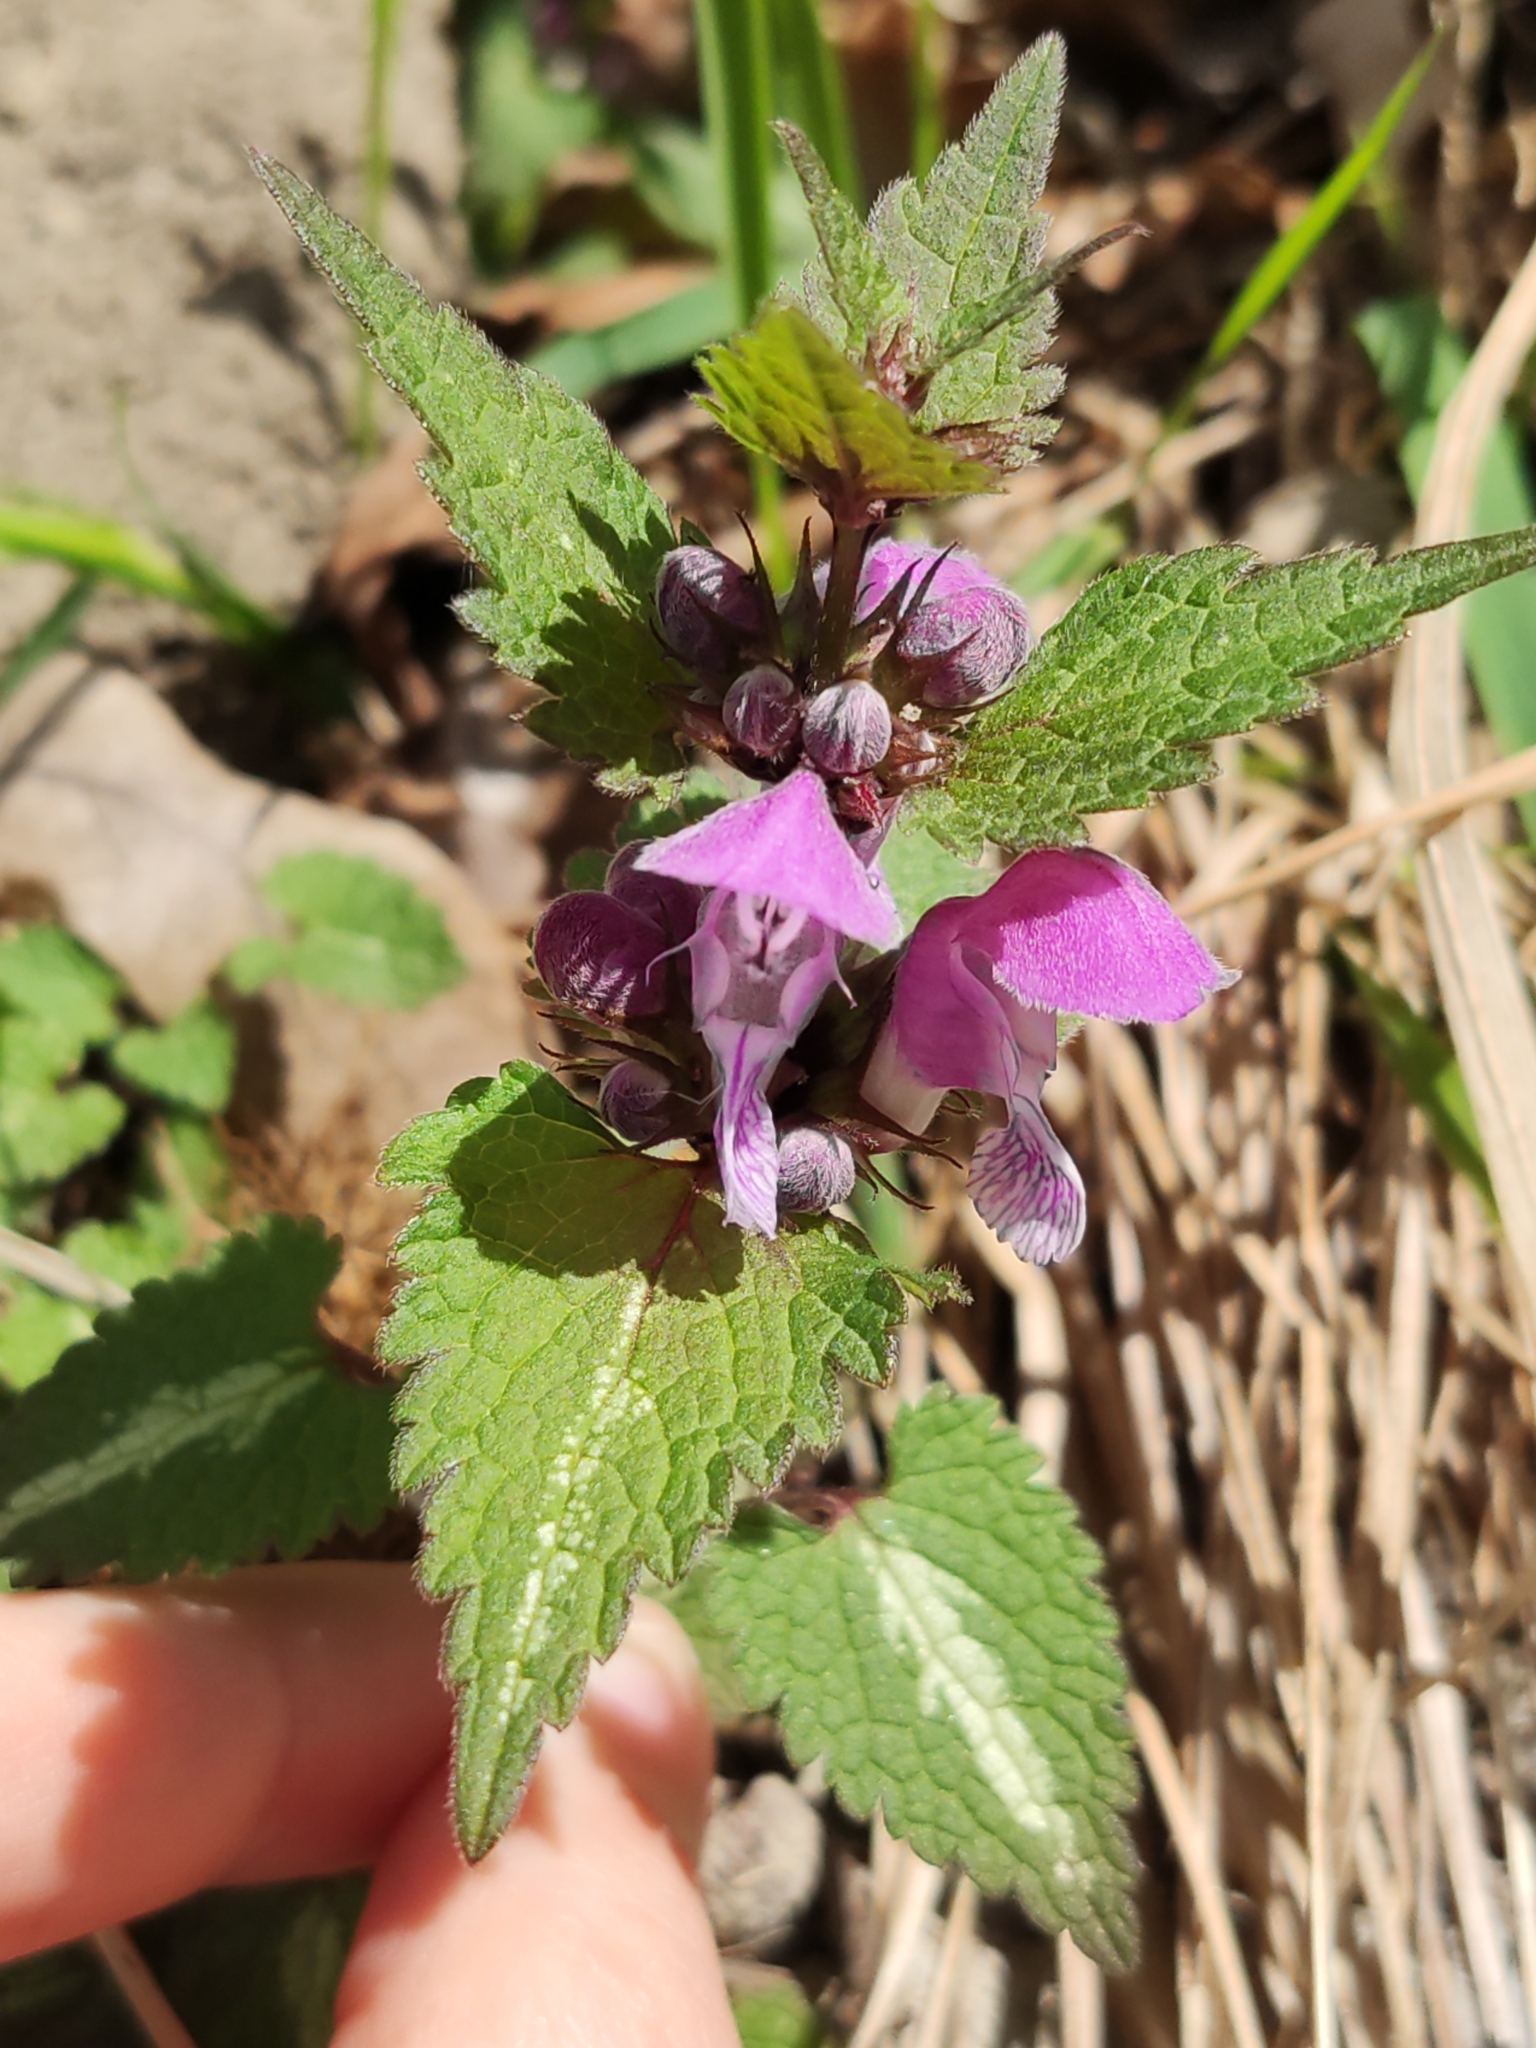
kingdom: Plantae
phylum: Tracheophyta
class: Magnoliopsida
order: Lamiales
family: Lamiaceae
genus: Lamium
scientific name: Lamium maculatum
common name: Spotted dead-nettle
